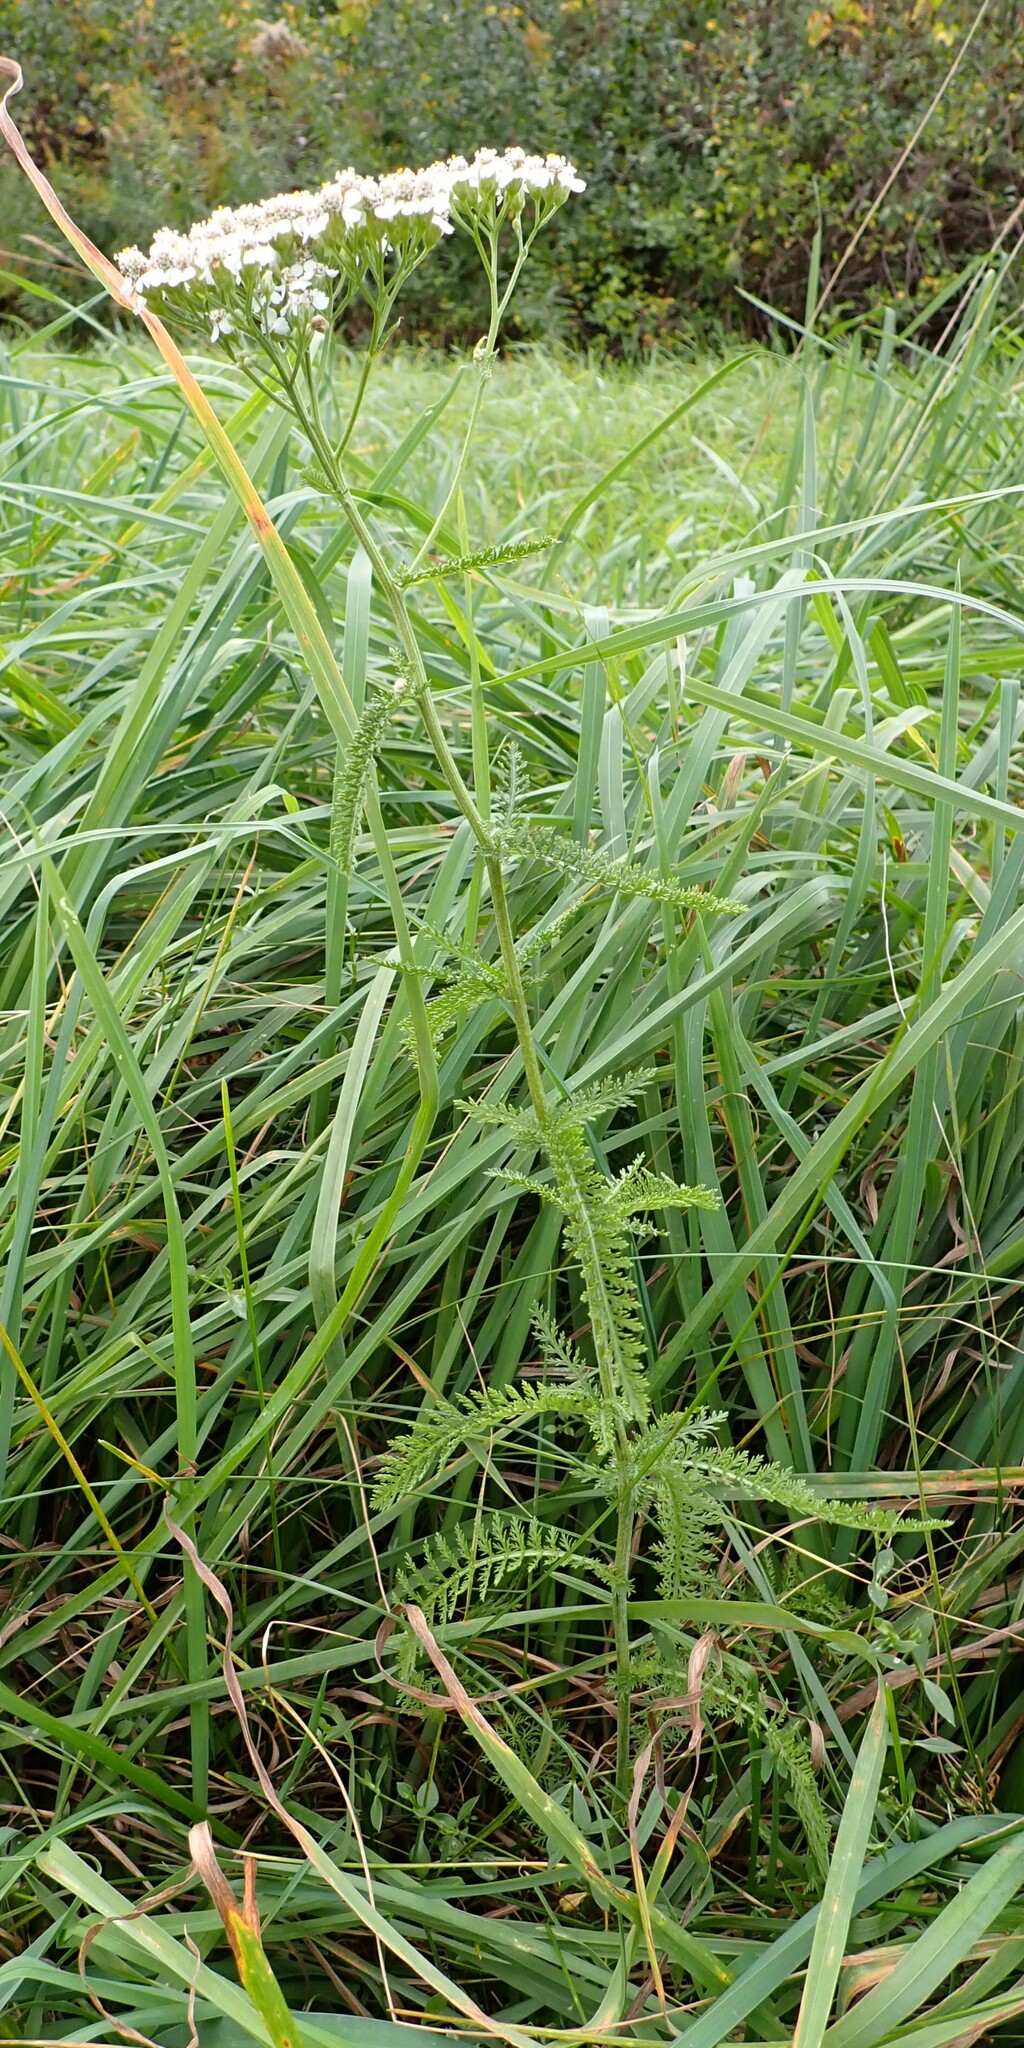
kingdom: Plantae
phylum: Tracheophyta
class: Magnoliopsida
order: Asterales
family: Asteraceae
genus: Achillea
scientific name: Achillea millefolium
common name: Yarrow
